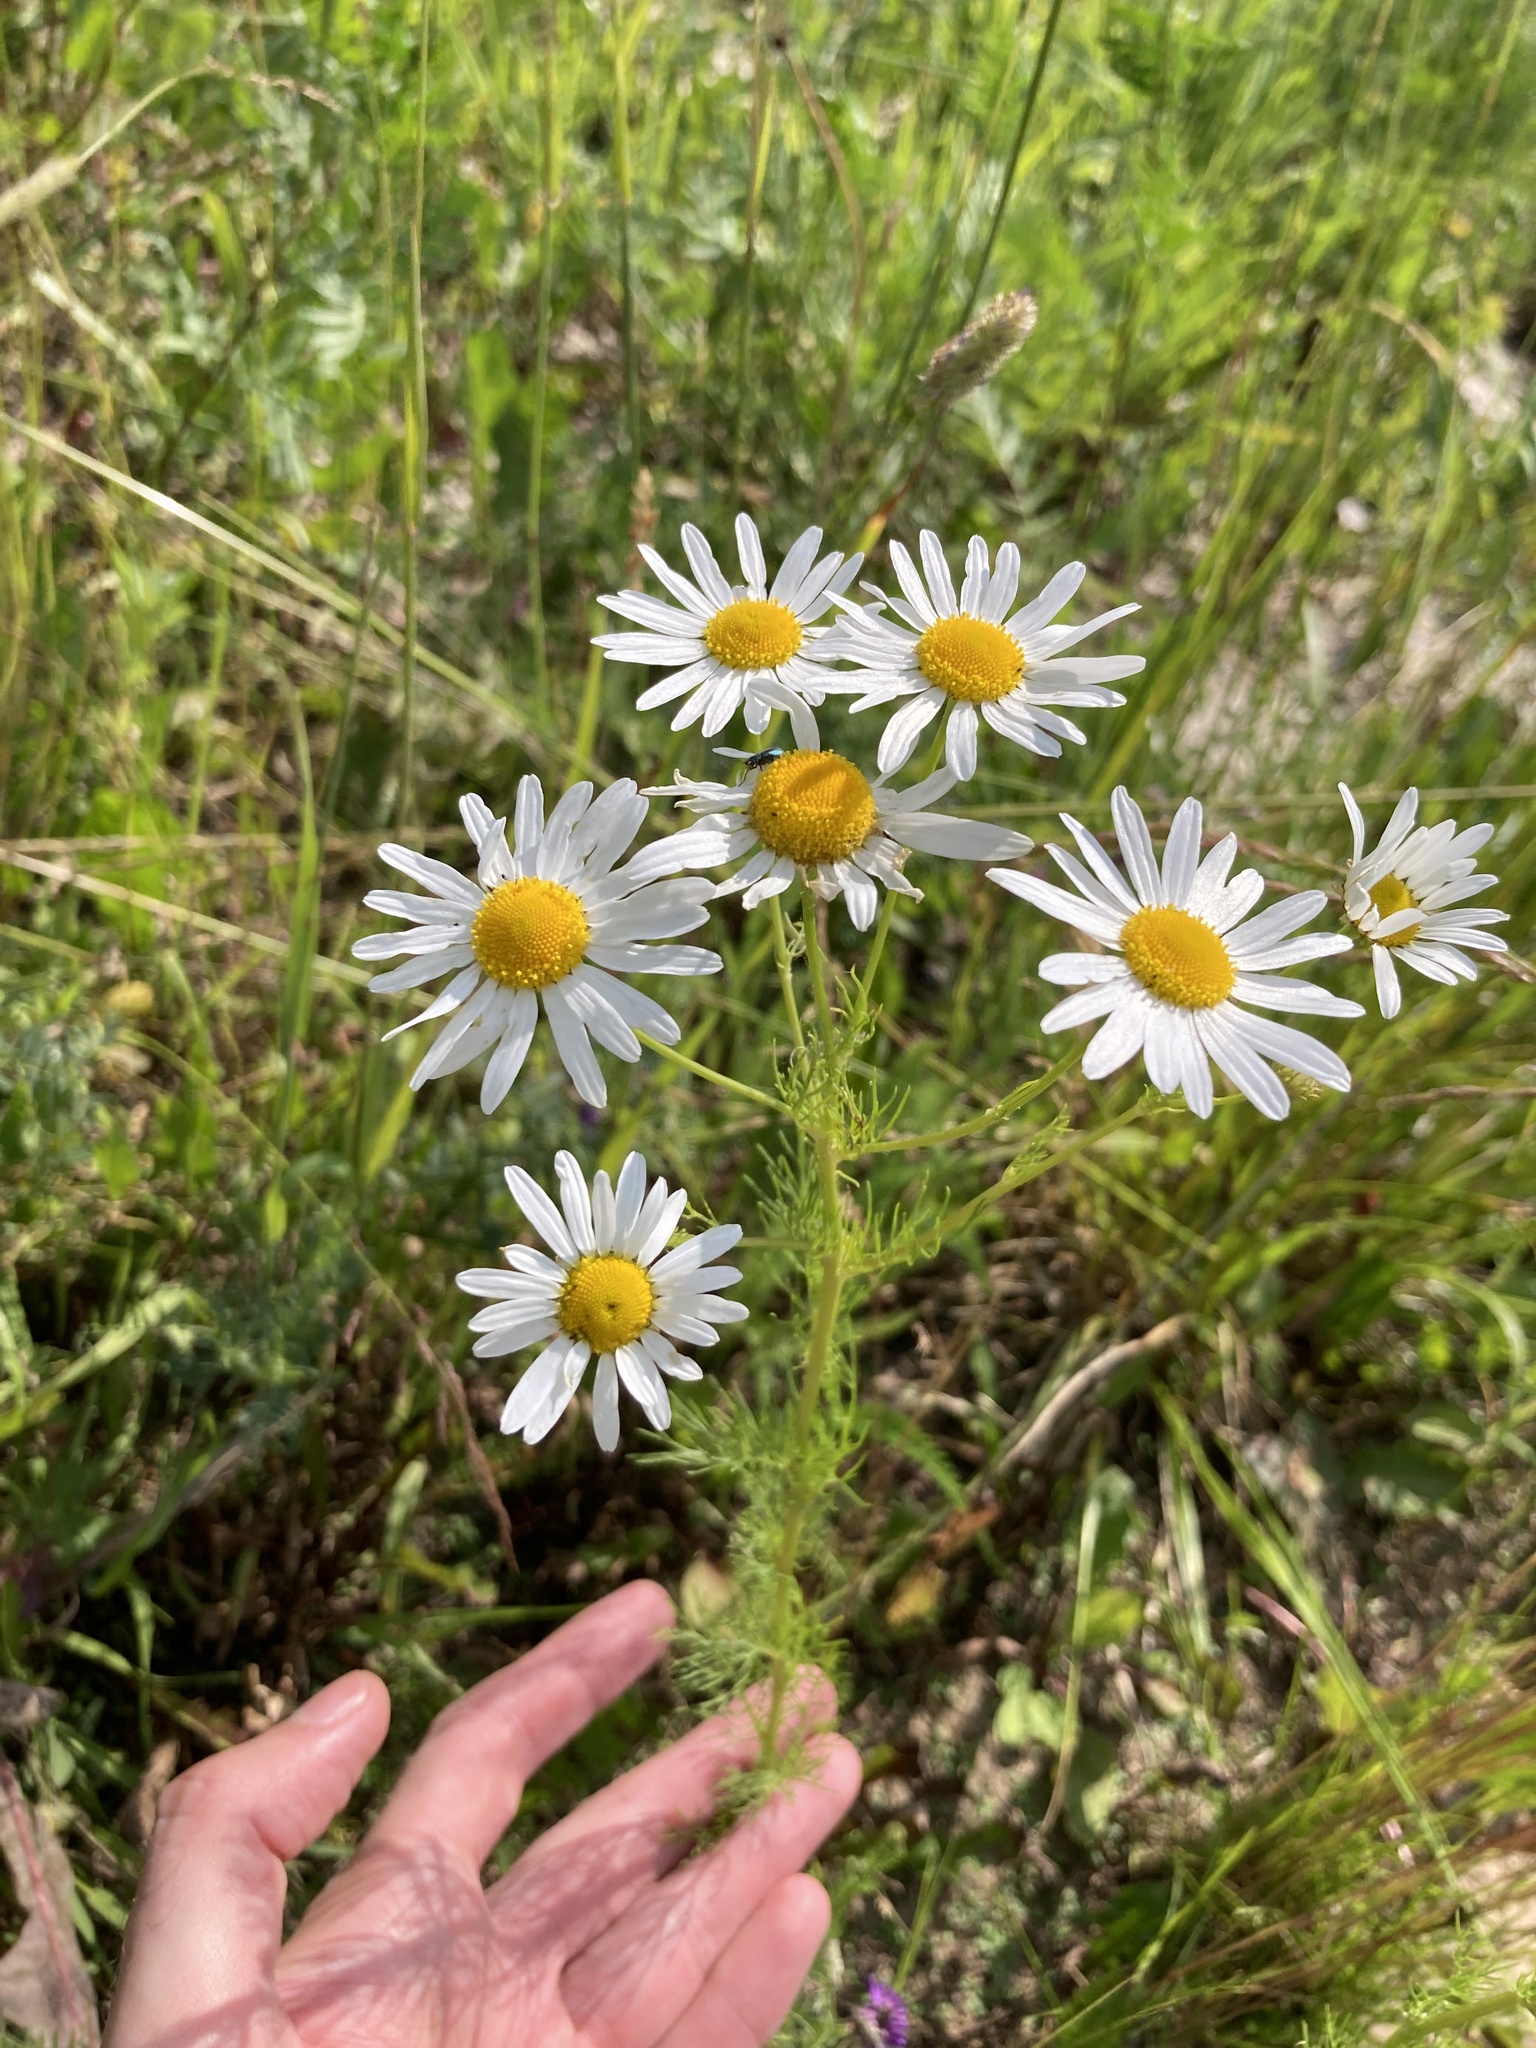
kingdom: Plantae
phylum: Tracheophyta
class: Magnoliopsida
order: Asterales
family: Asteraceae
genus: Tripleurospermum
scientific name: Tripleurospermum inodorum
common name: Scentless mayweed
